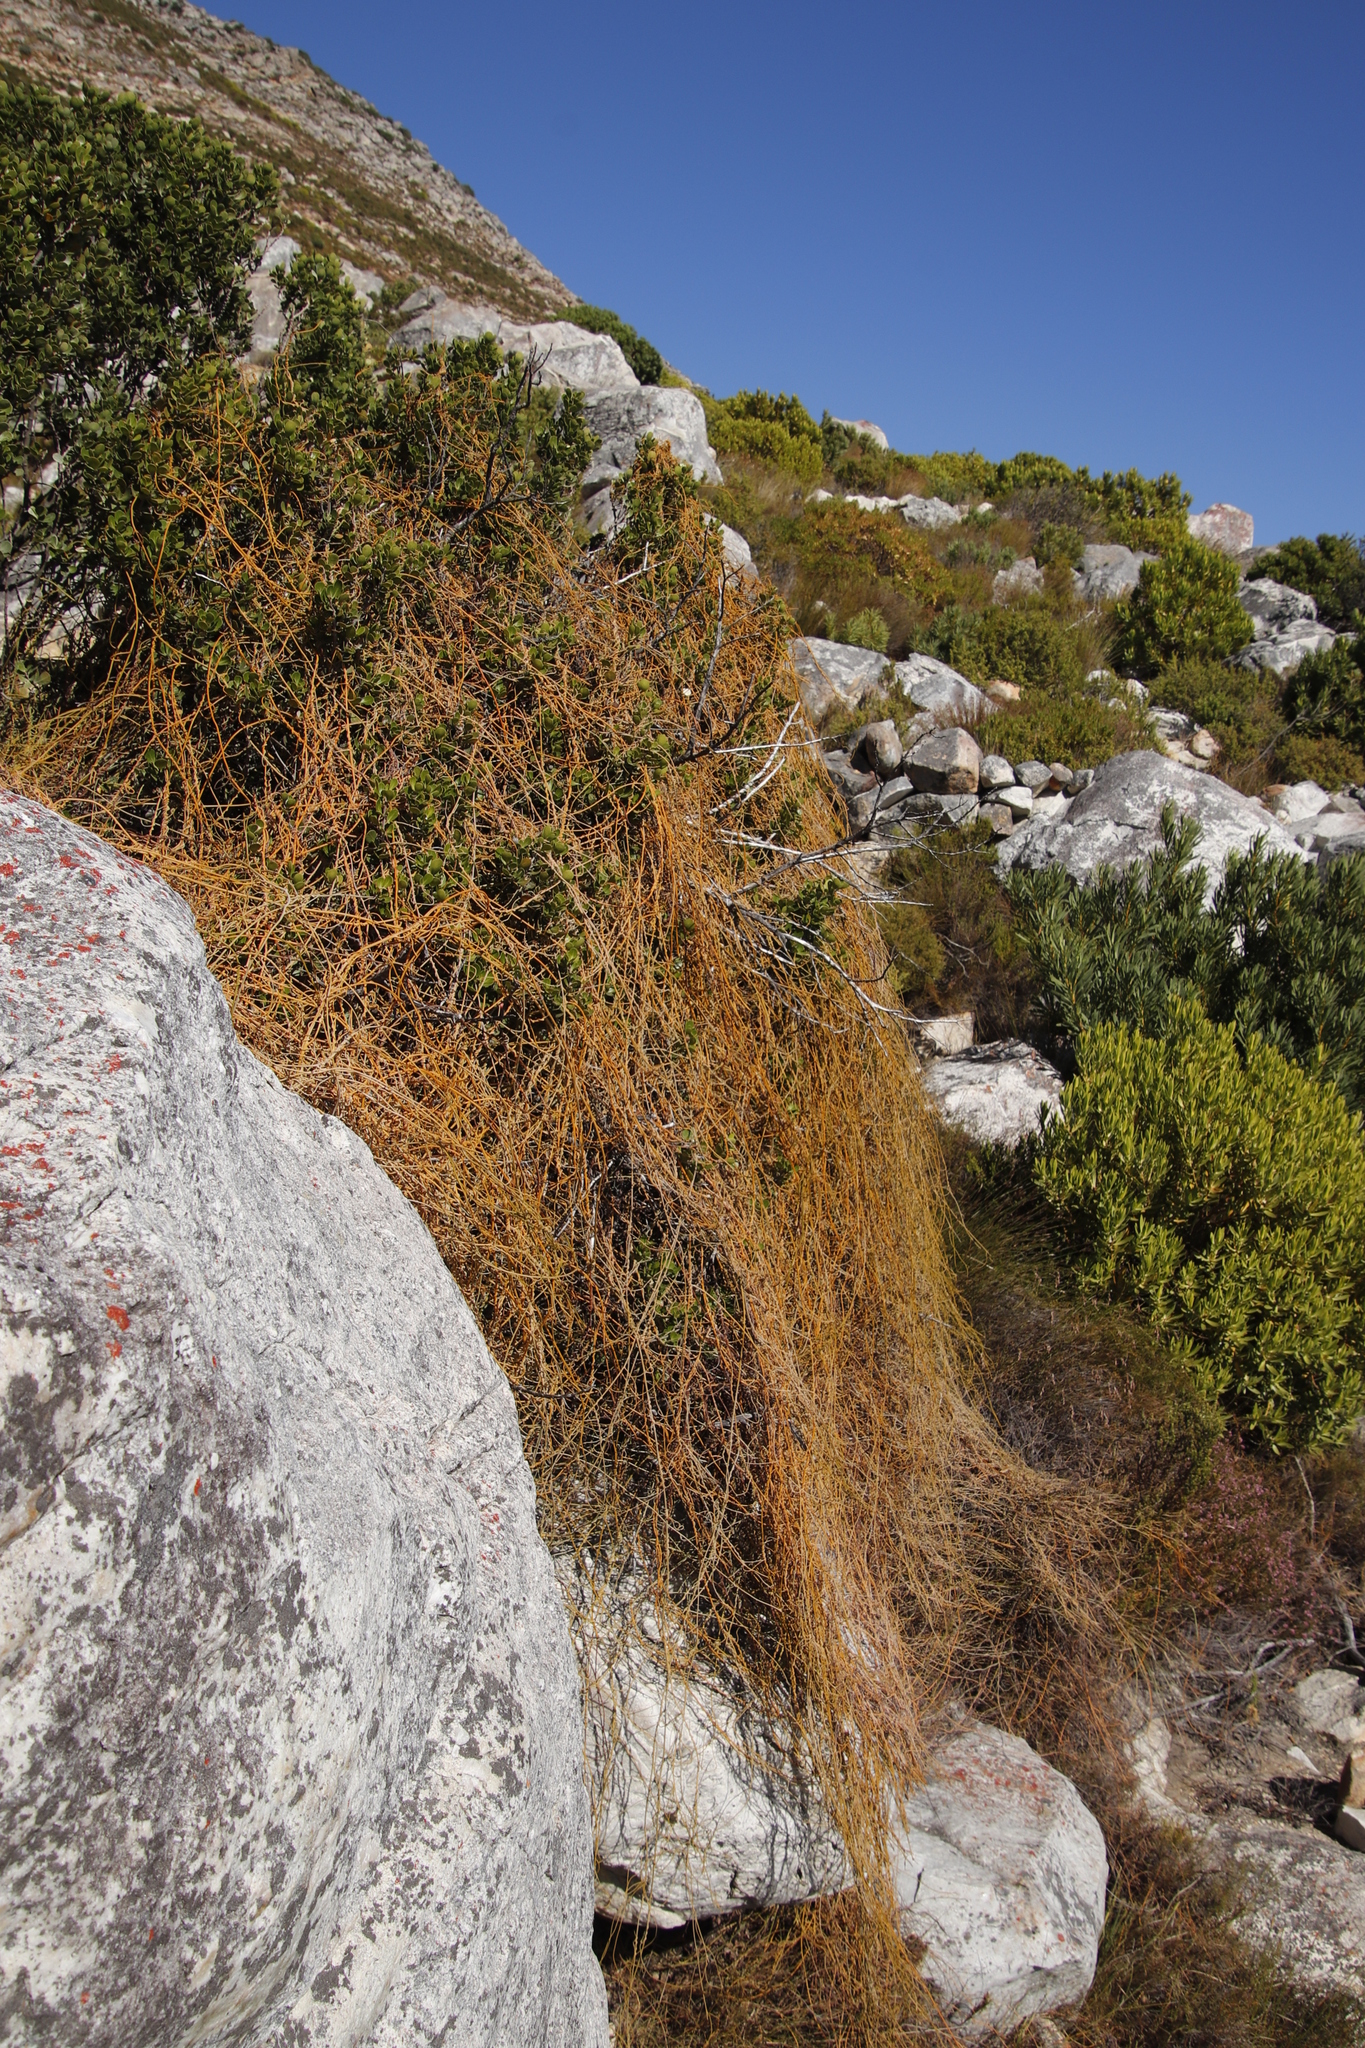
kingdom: Plantae
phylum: Tracheophyta
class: Magnoliopsida
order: Laurales
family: Lauraceae
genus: Cassytha
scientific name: Cassytha ciliolata
